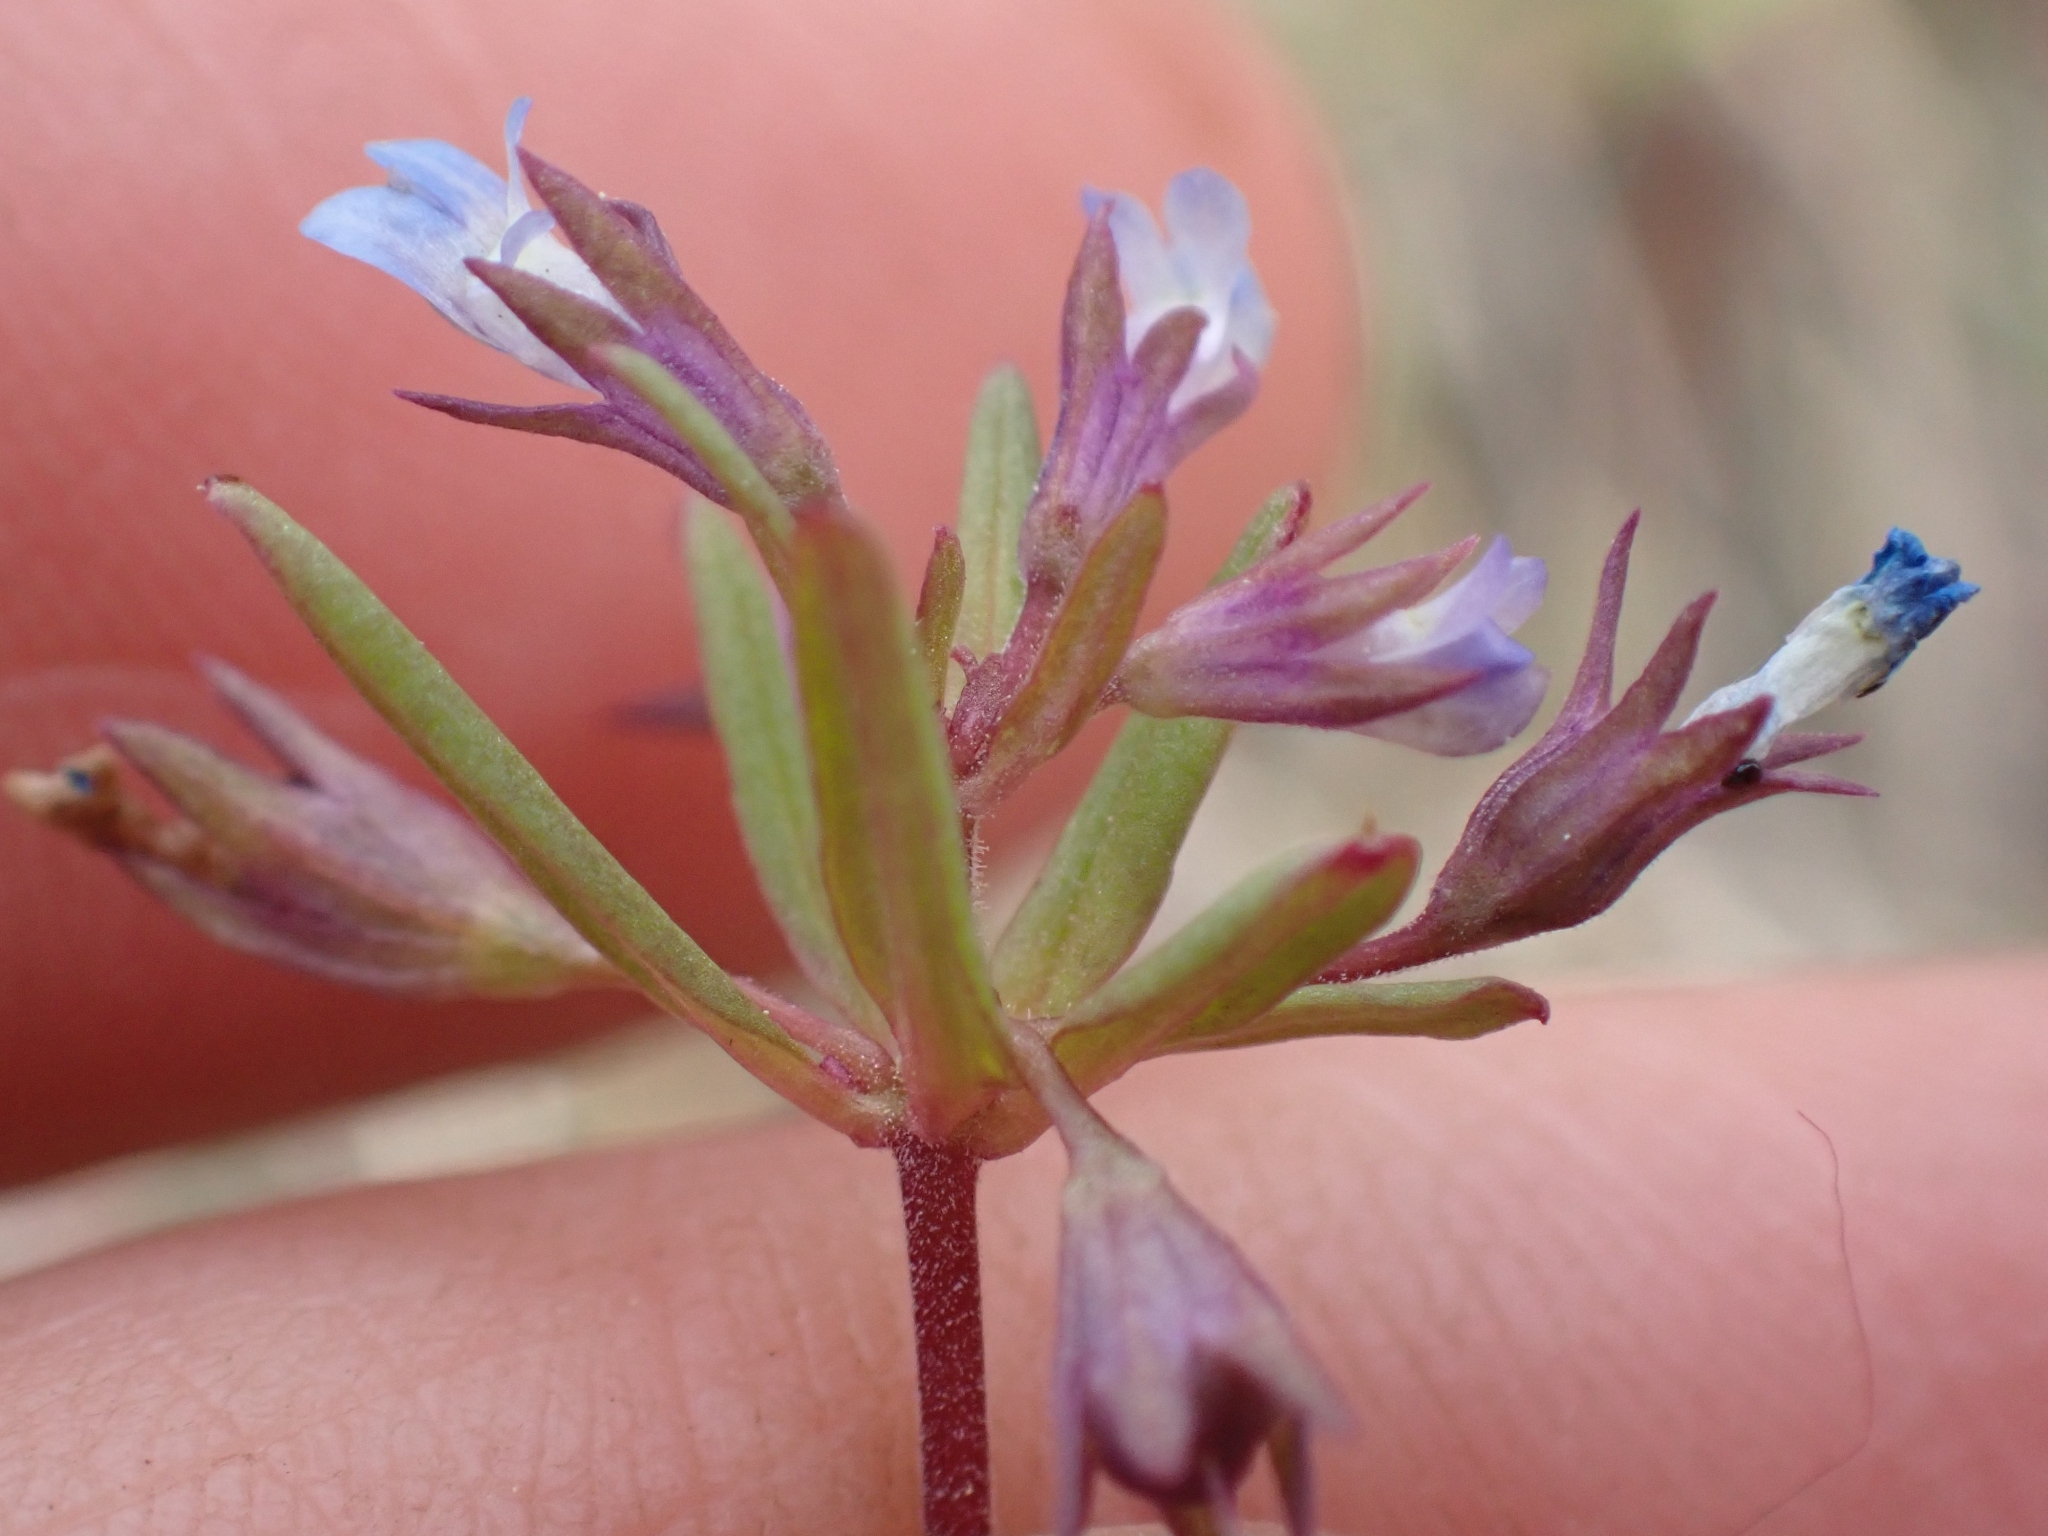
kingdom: Plantae
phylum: Tracheophyta
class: Magnoliopsida
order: Lamiales
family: Plantaginaceae
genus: Collinsia
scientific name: Collinsia parviflora
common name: Blue-lips
